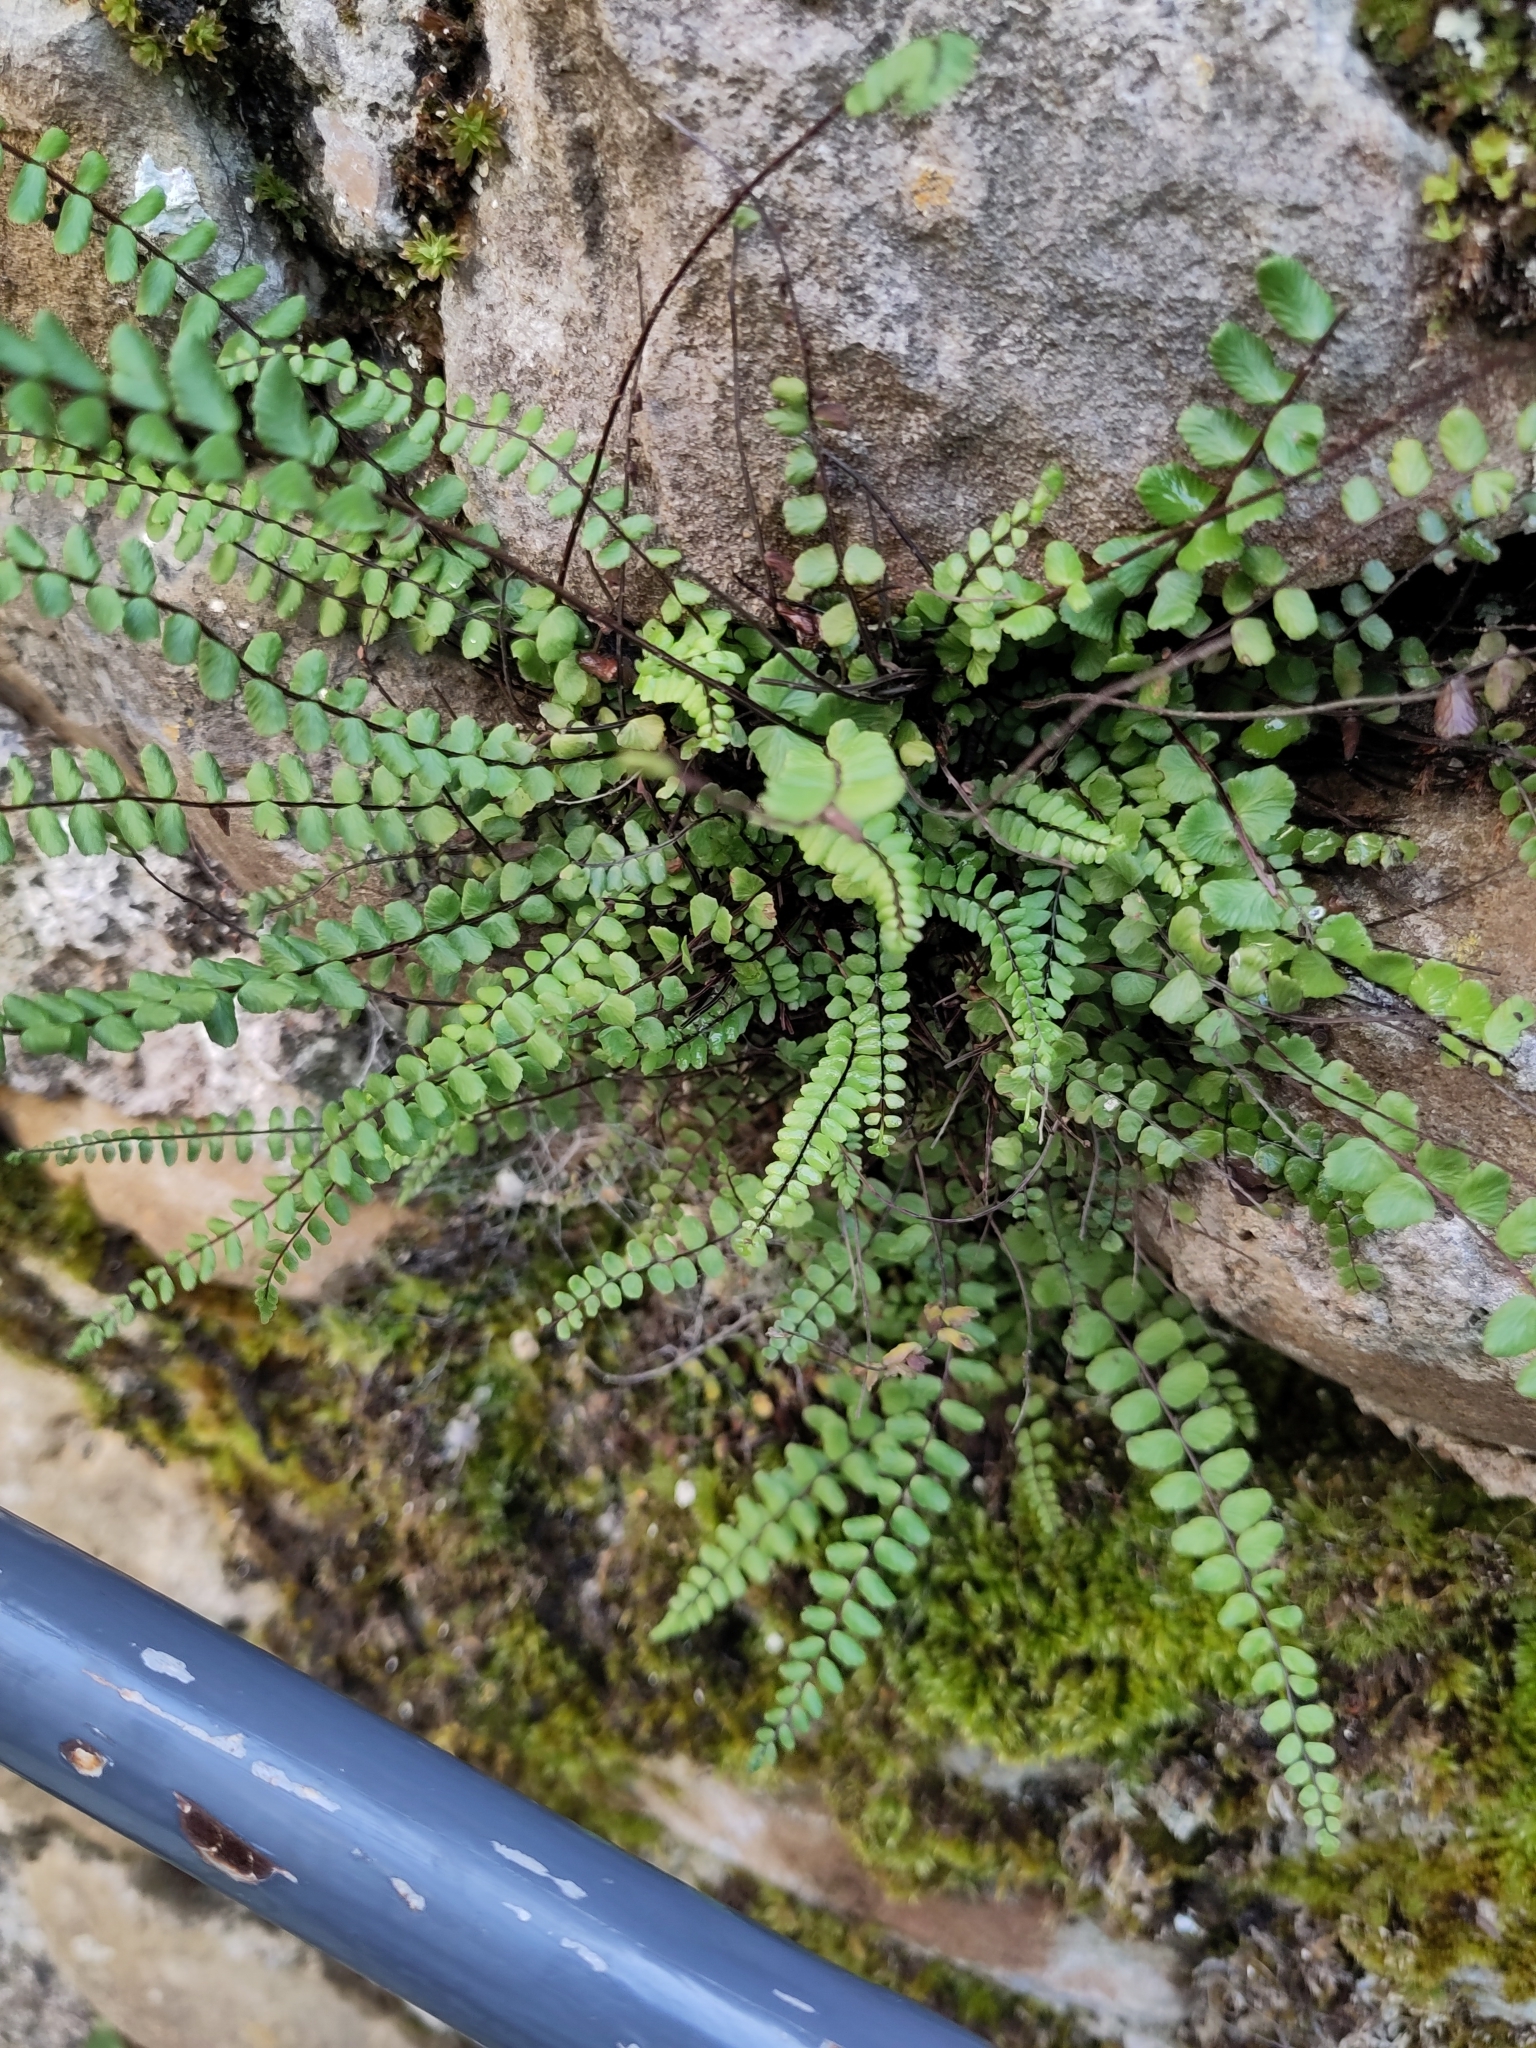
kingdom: Plantae
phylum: Tracheophyta
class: Polypodiopsida
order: Polypodiales
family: Aspleniaceae
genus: Asplenium
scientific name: Asplenium trichomanes
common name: Maidenhair spleenwort
